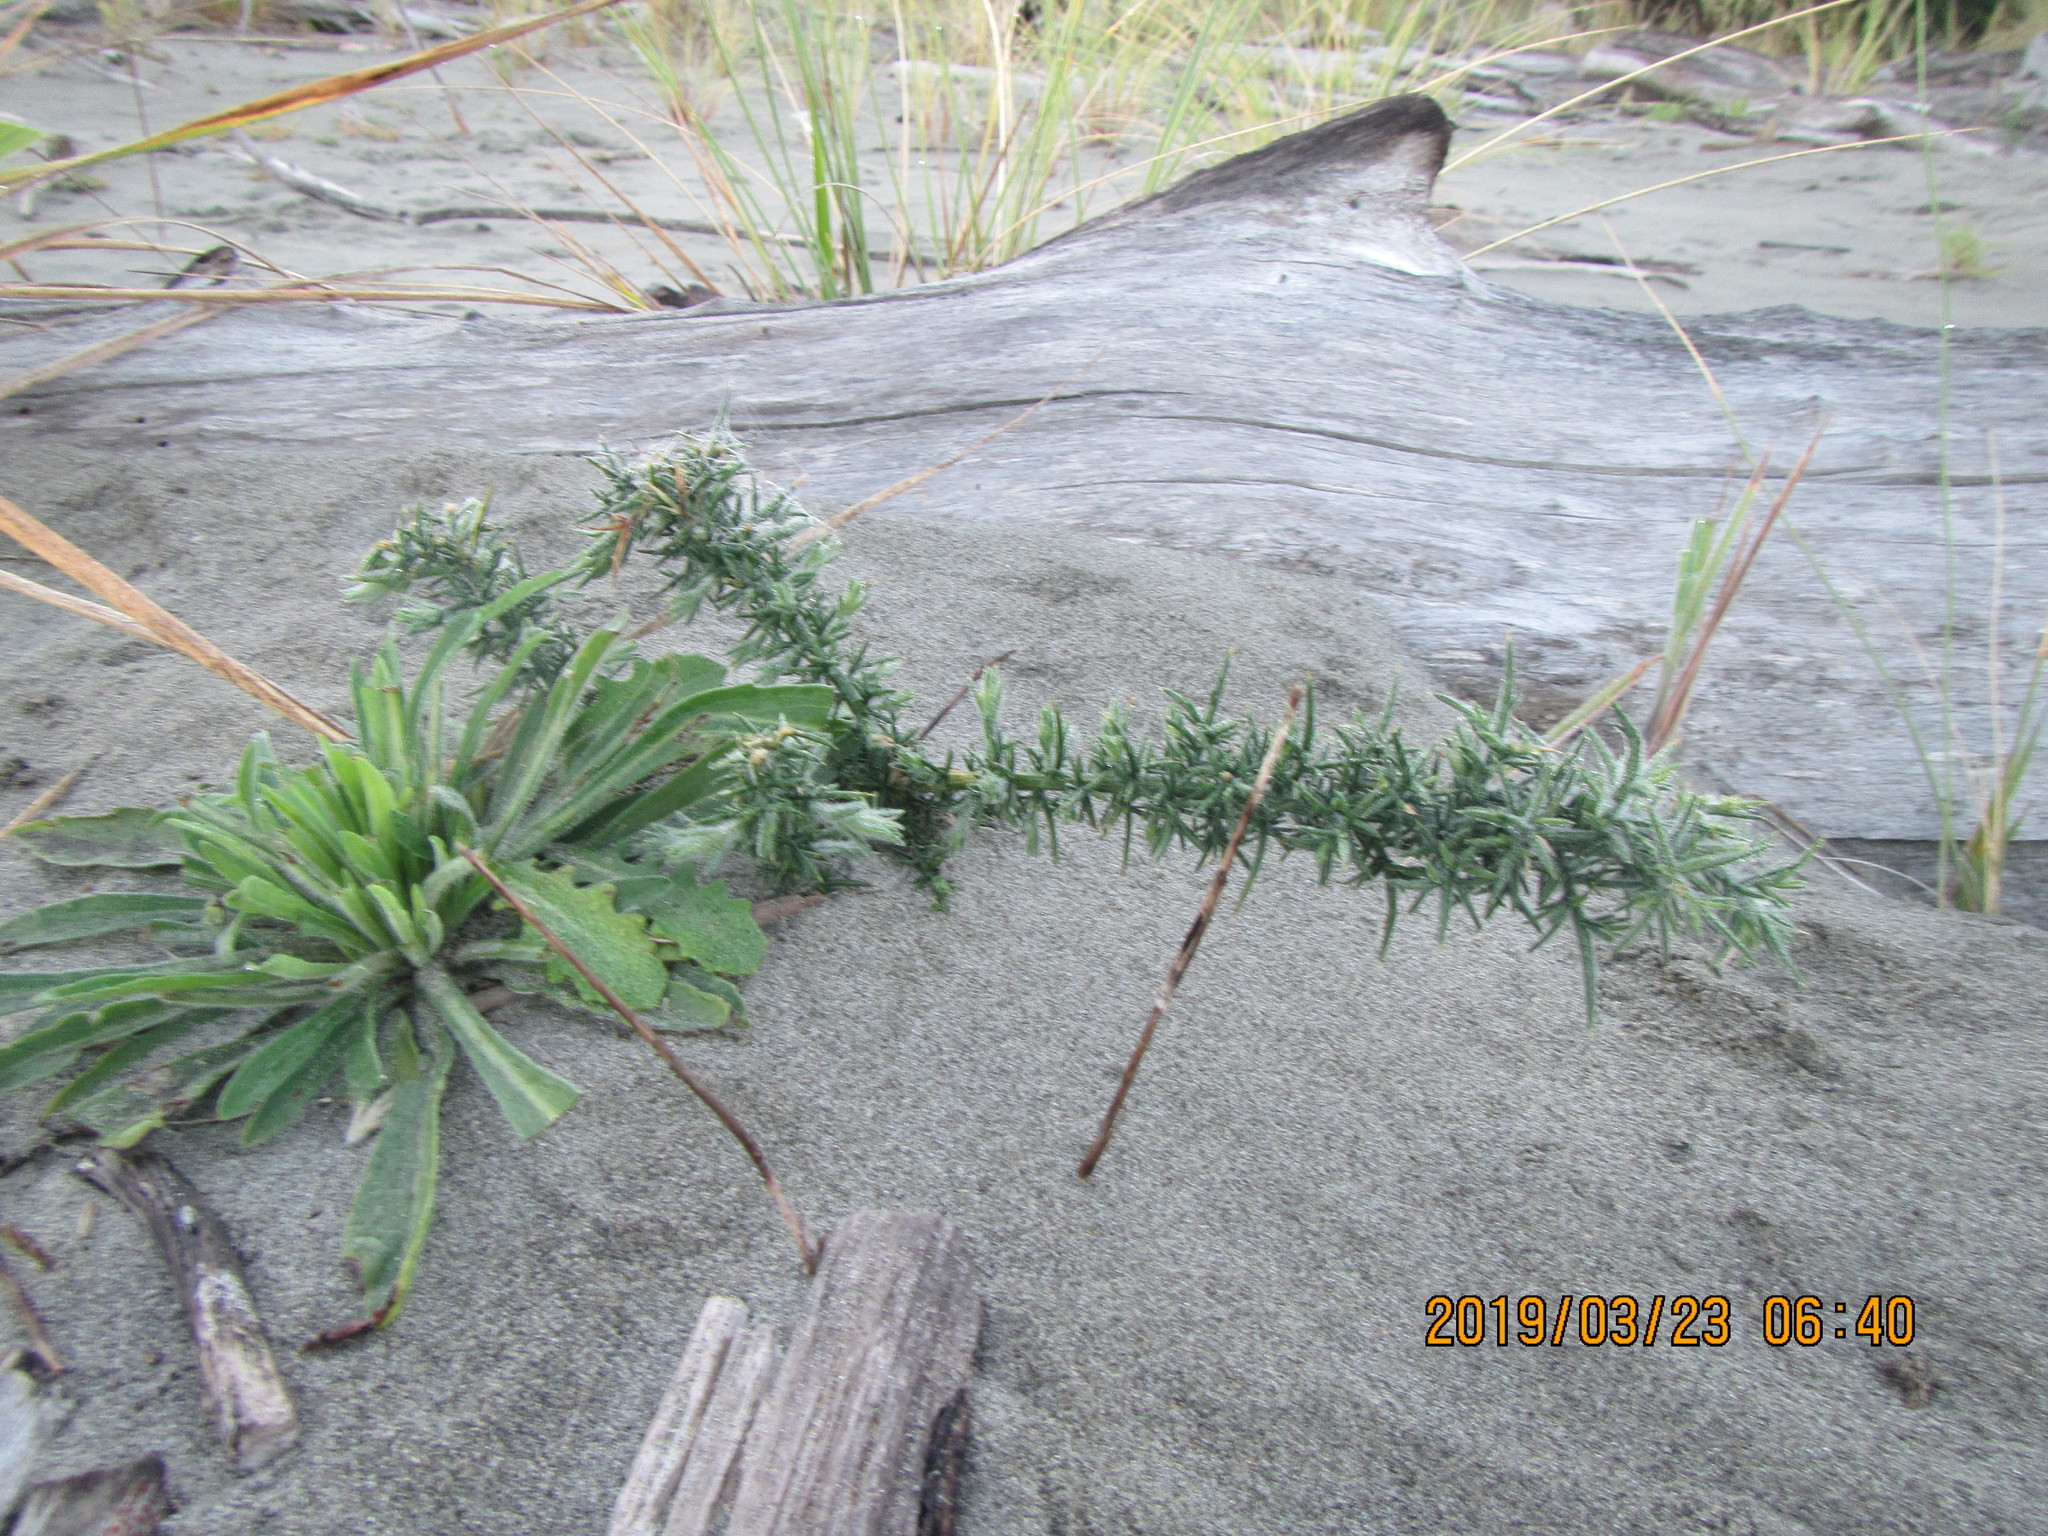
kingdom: Plantae
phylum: Tracheophyta
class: Magnoliopsida
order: Fabales
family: Fabaceae
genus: Ulex
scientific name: Ulex europaeus
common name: Common gorse
